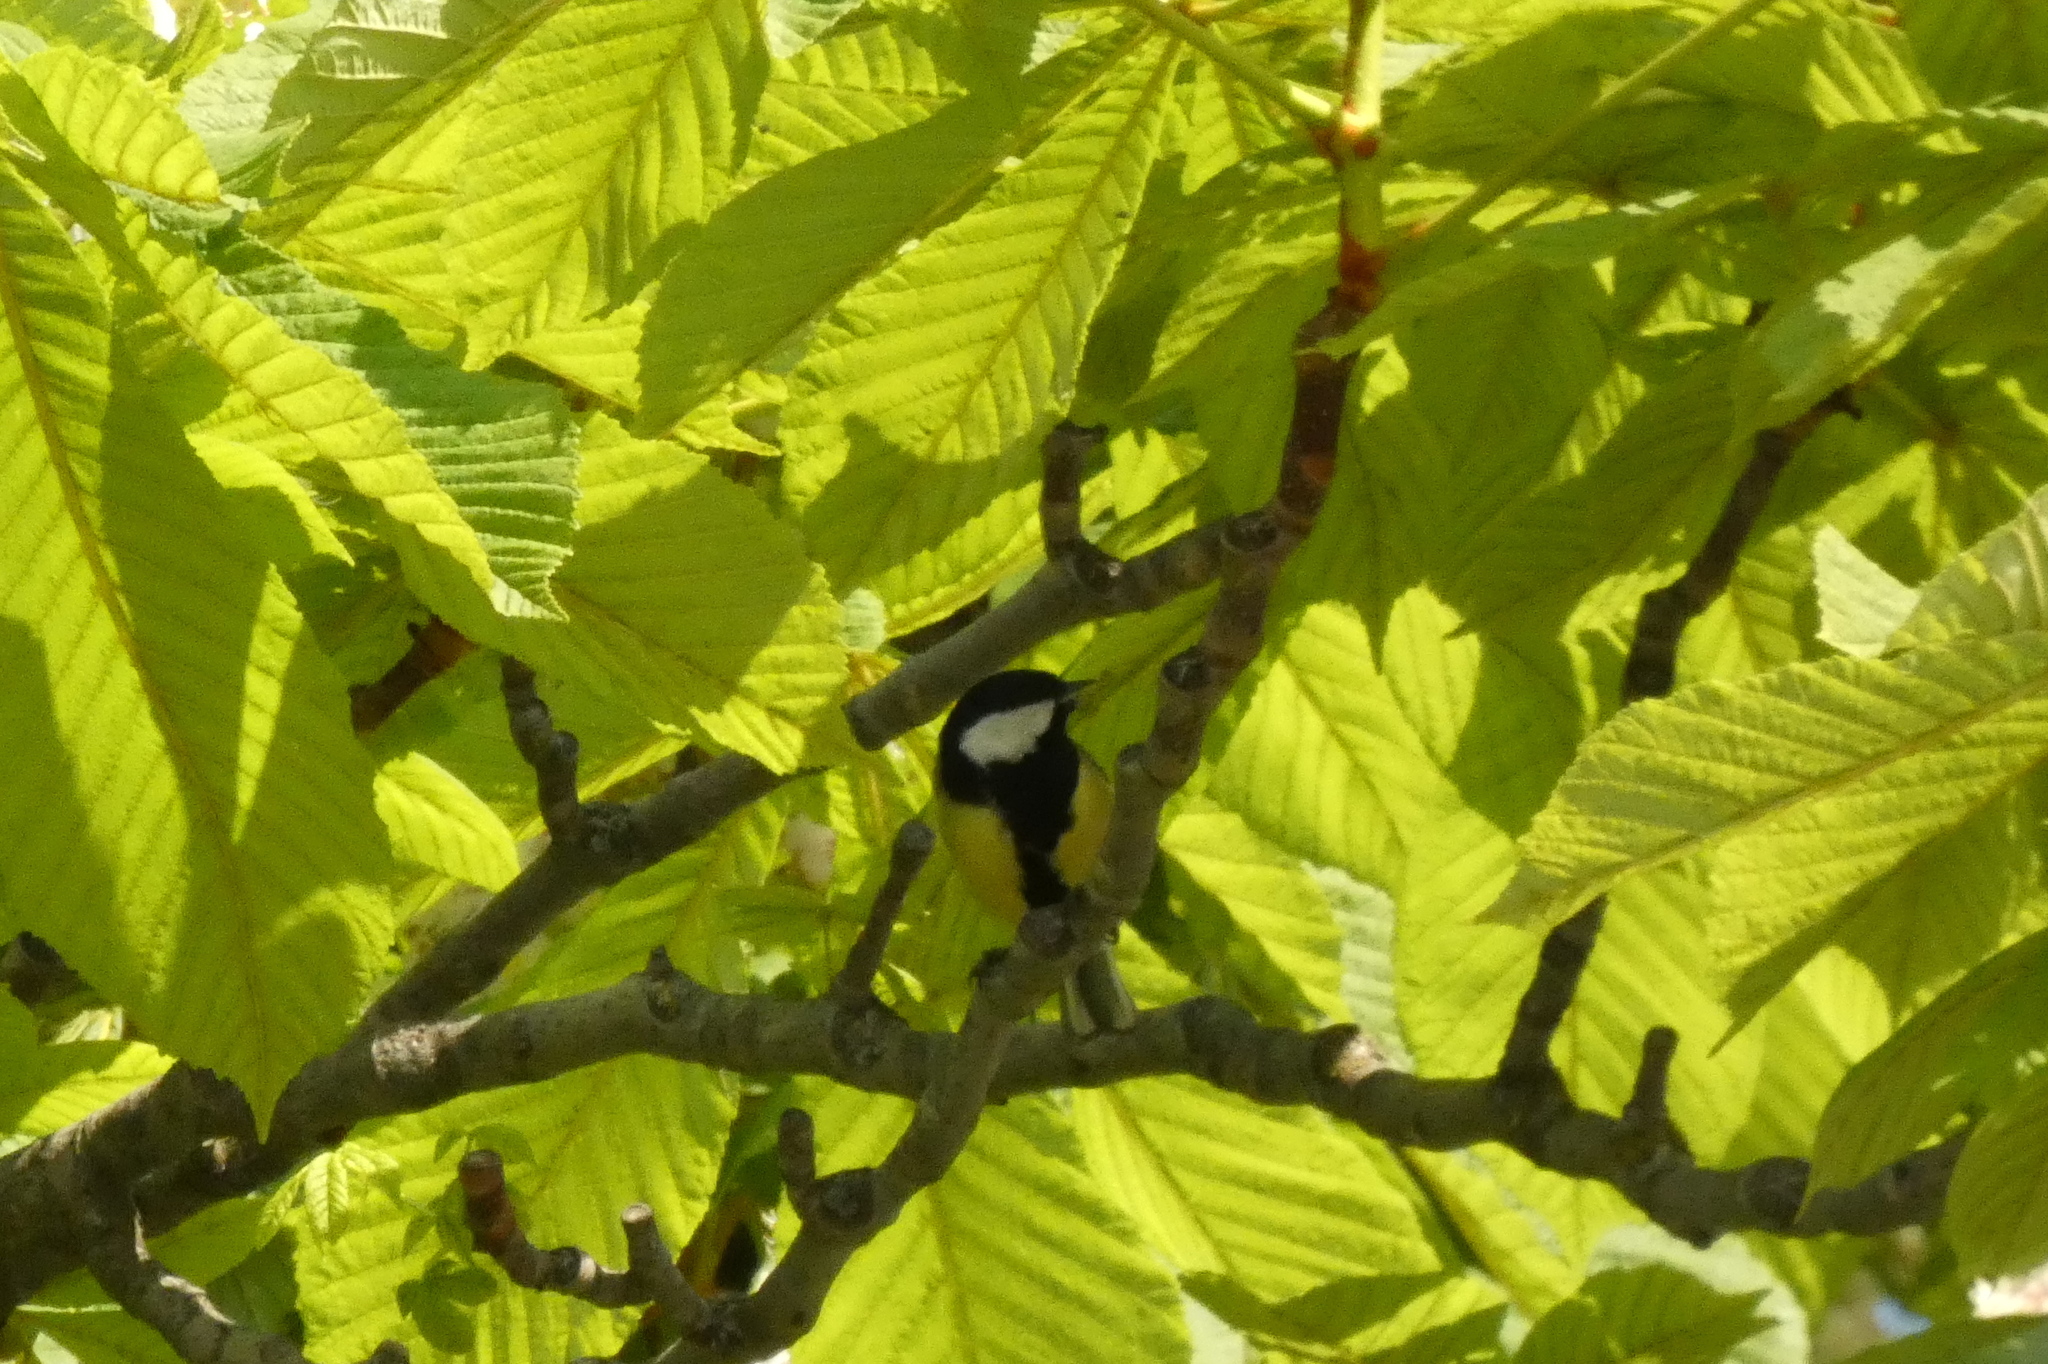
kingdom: Animalia
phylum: Chordata
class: Aves
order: Passeriformes
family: Paridae
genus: Parus
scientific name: Parus major
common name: Great tit
